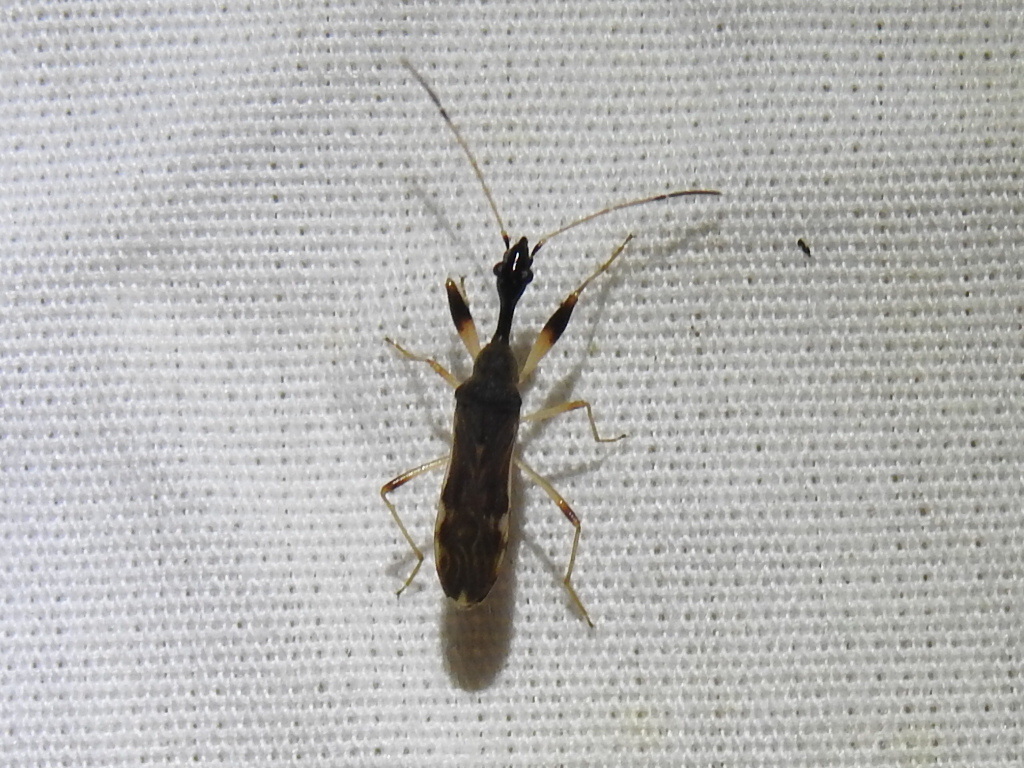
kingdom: Animalia
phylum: Arthropoda
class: Insecta
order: Hemiptera
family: Rhyparochromidae
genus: Myodocha
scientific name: Myodocha serripes
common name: Long-necked seed bug
